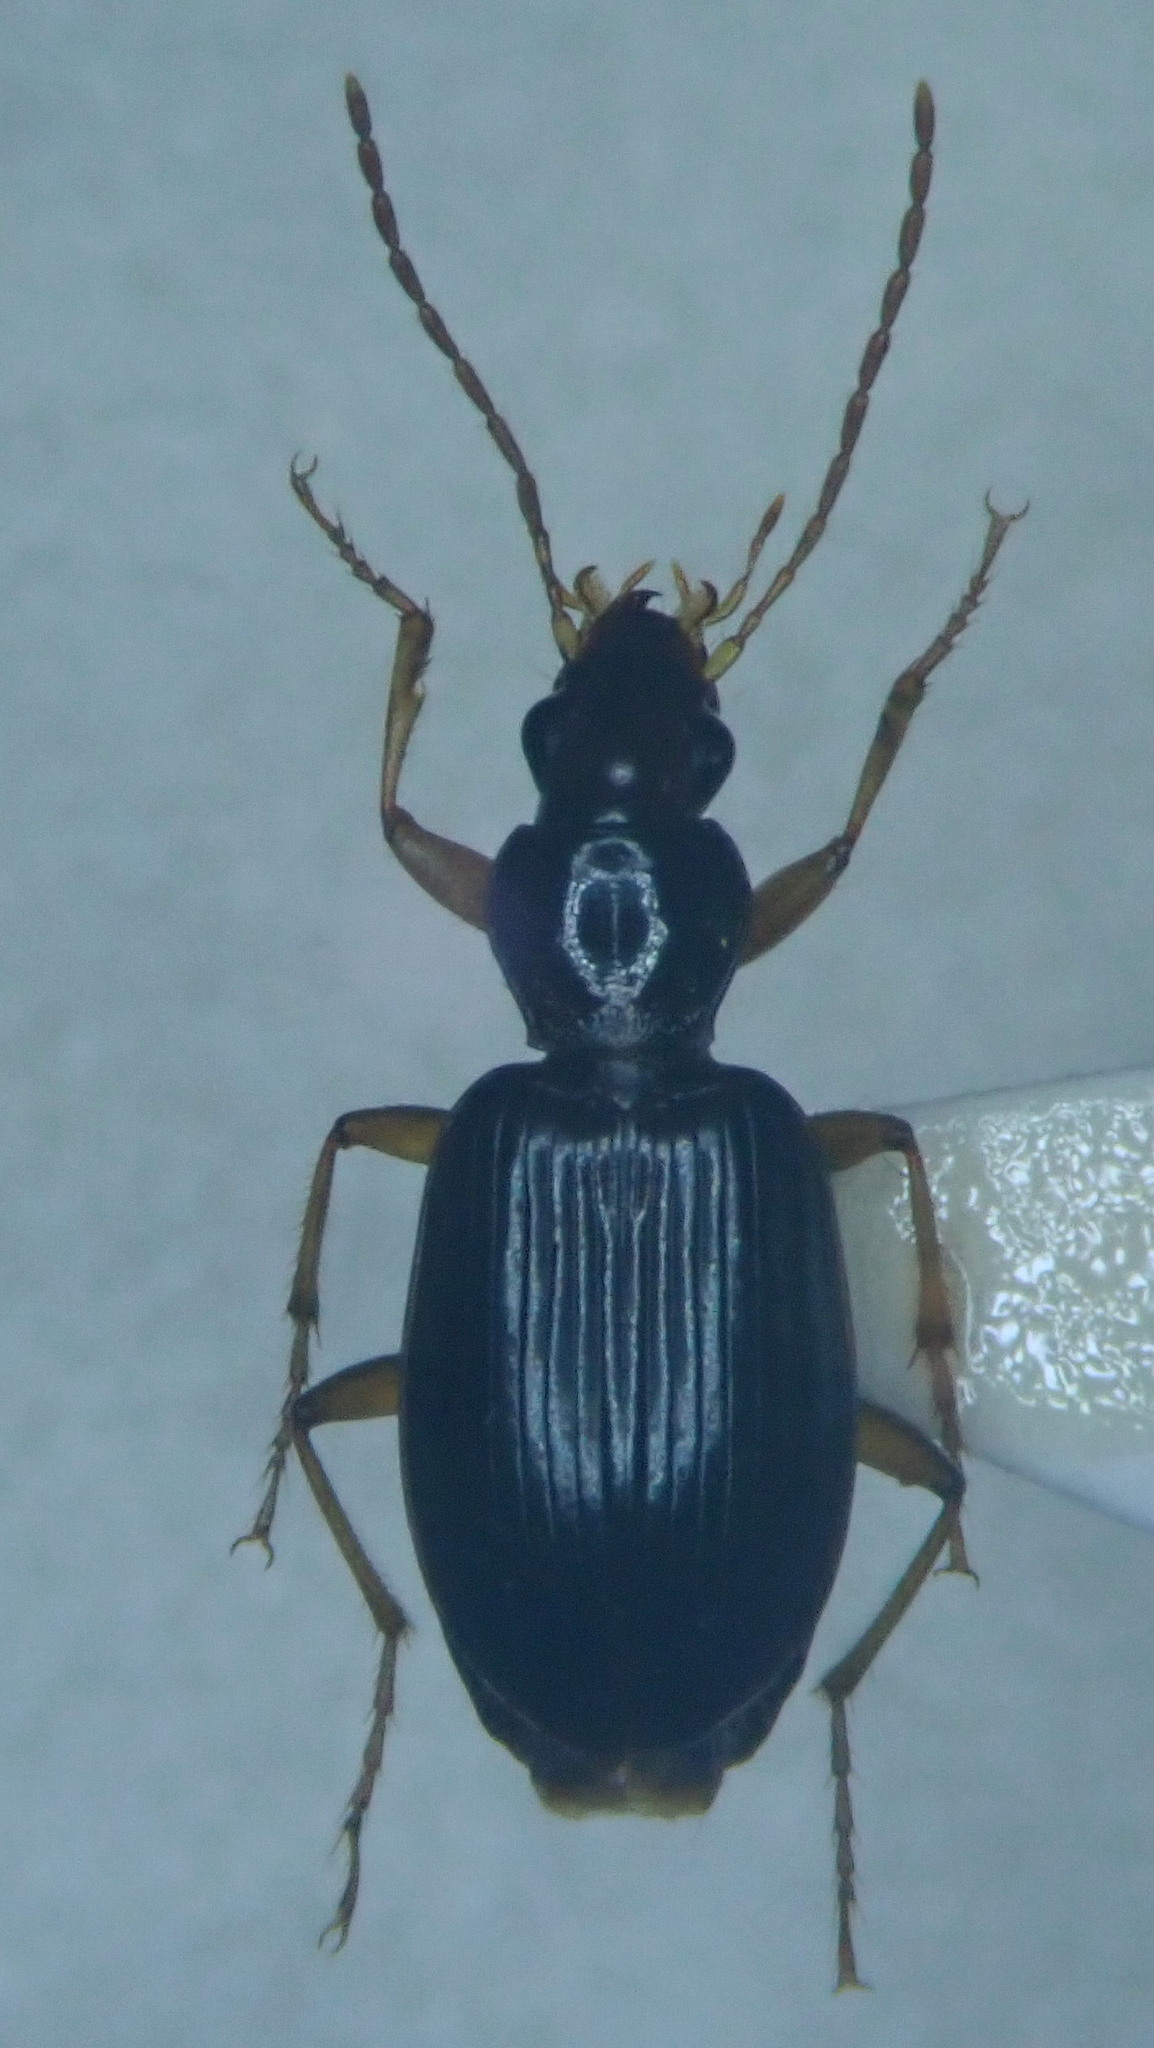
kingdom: Animalia
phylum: Arthropoda
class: Insecta
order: Coleoptera
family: Carabidae
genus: Paranchus
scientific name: Paranchus albipes
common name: White-legged harp ground beetle
